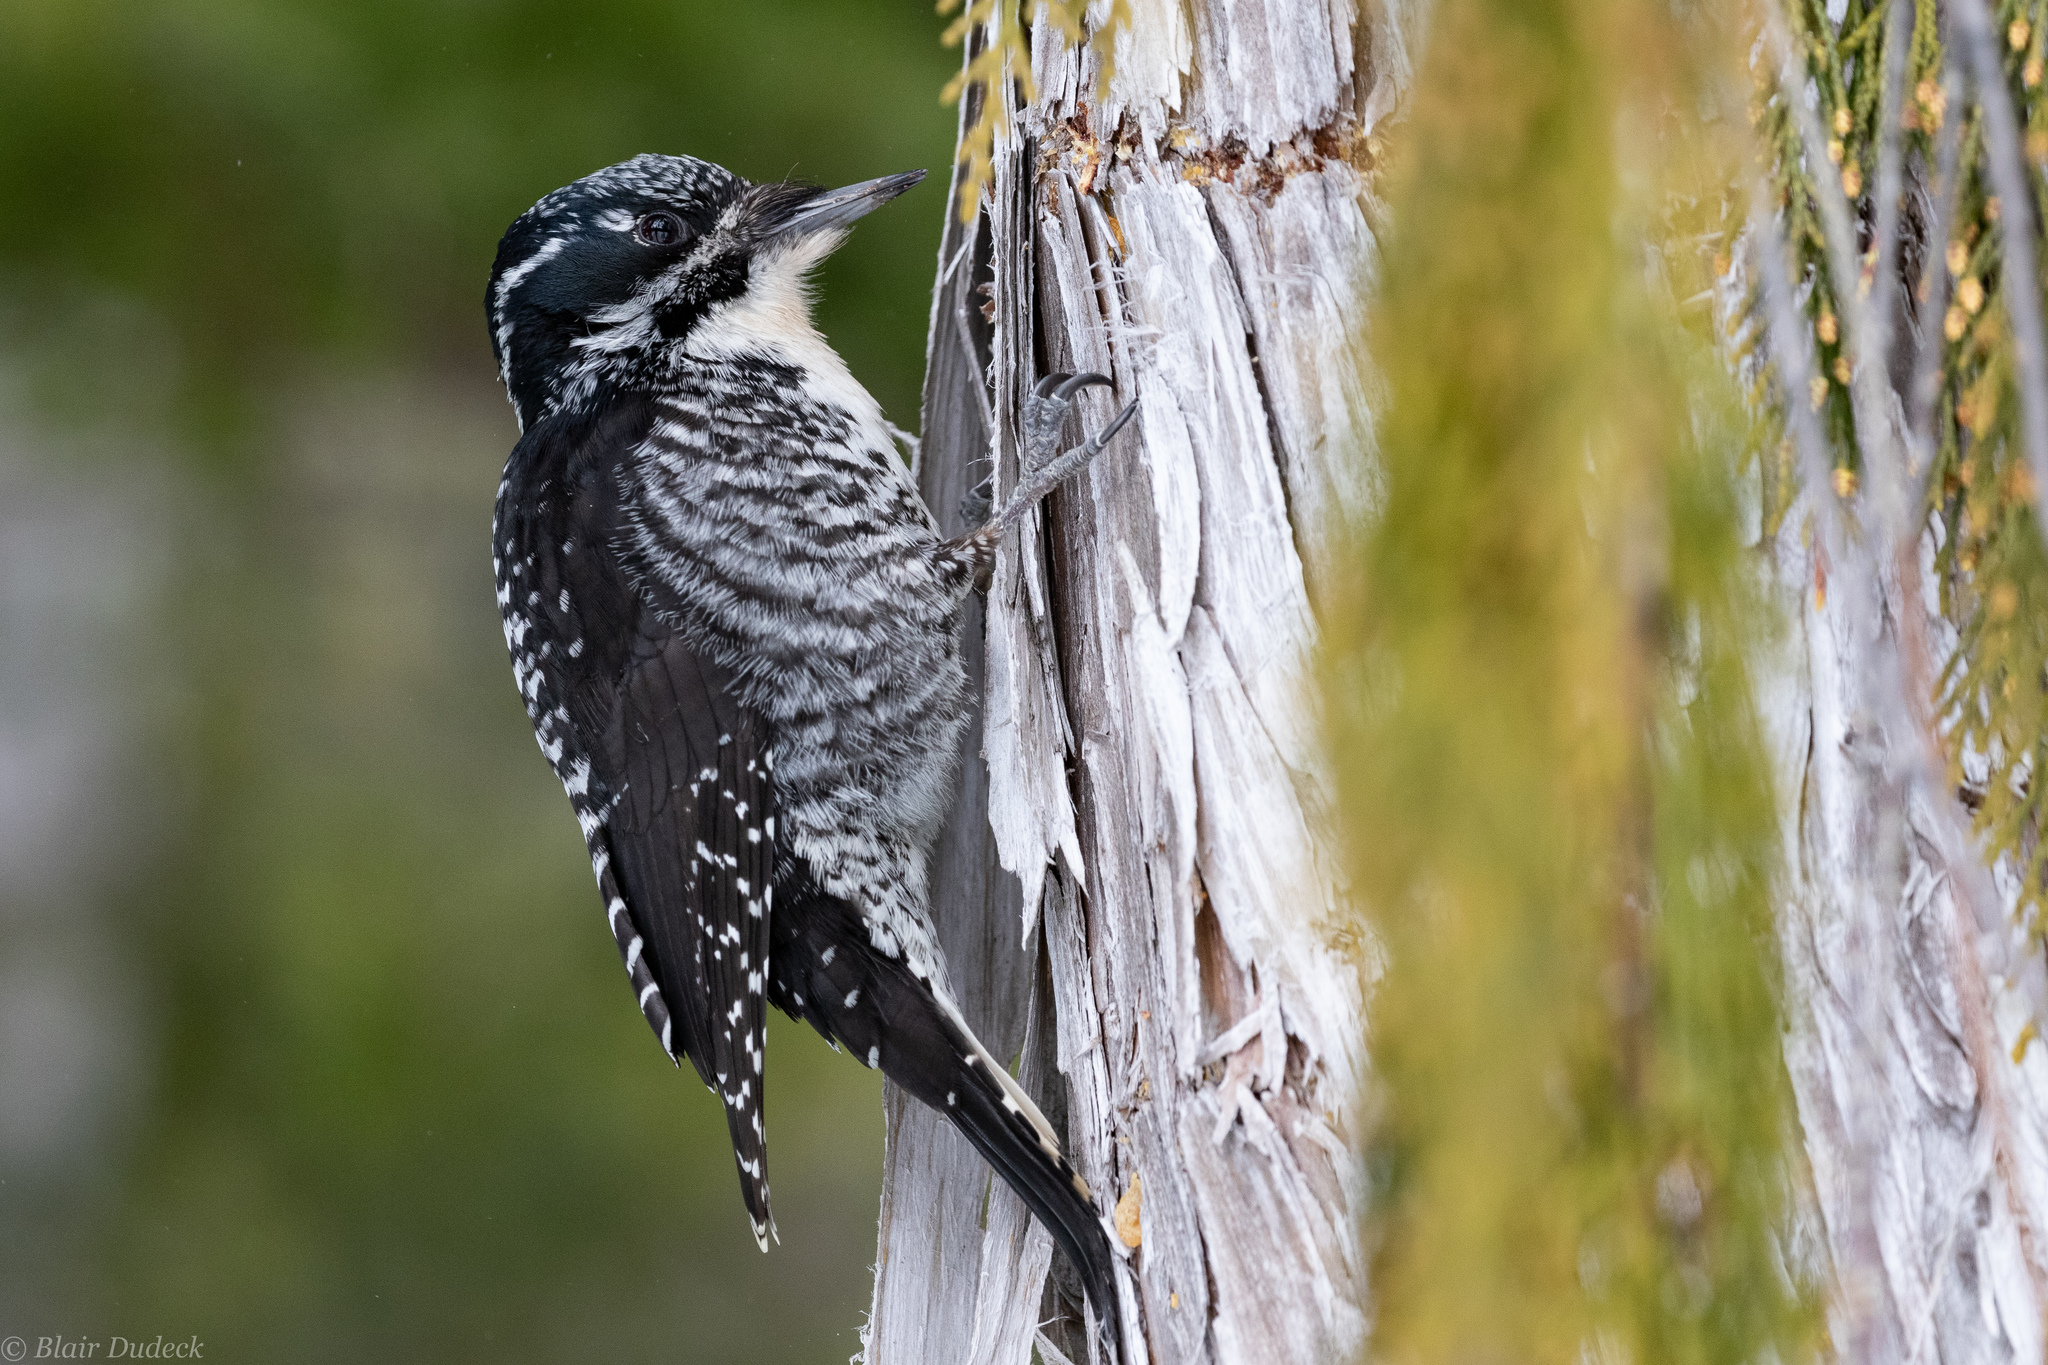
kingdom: Animalia
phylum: Chordata
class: Aves
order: Piciformes
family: Picidae
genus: Picoides
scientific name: Picoides dorsalis
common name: American three-toed woodpecker
